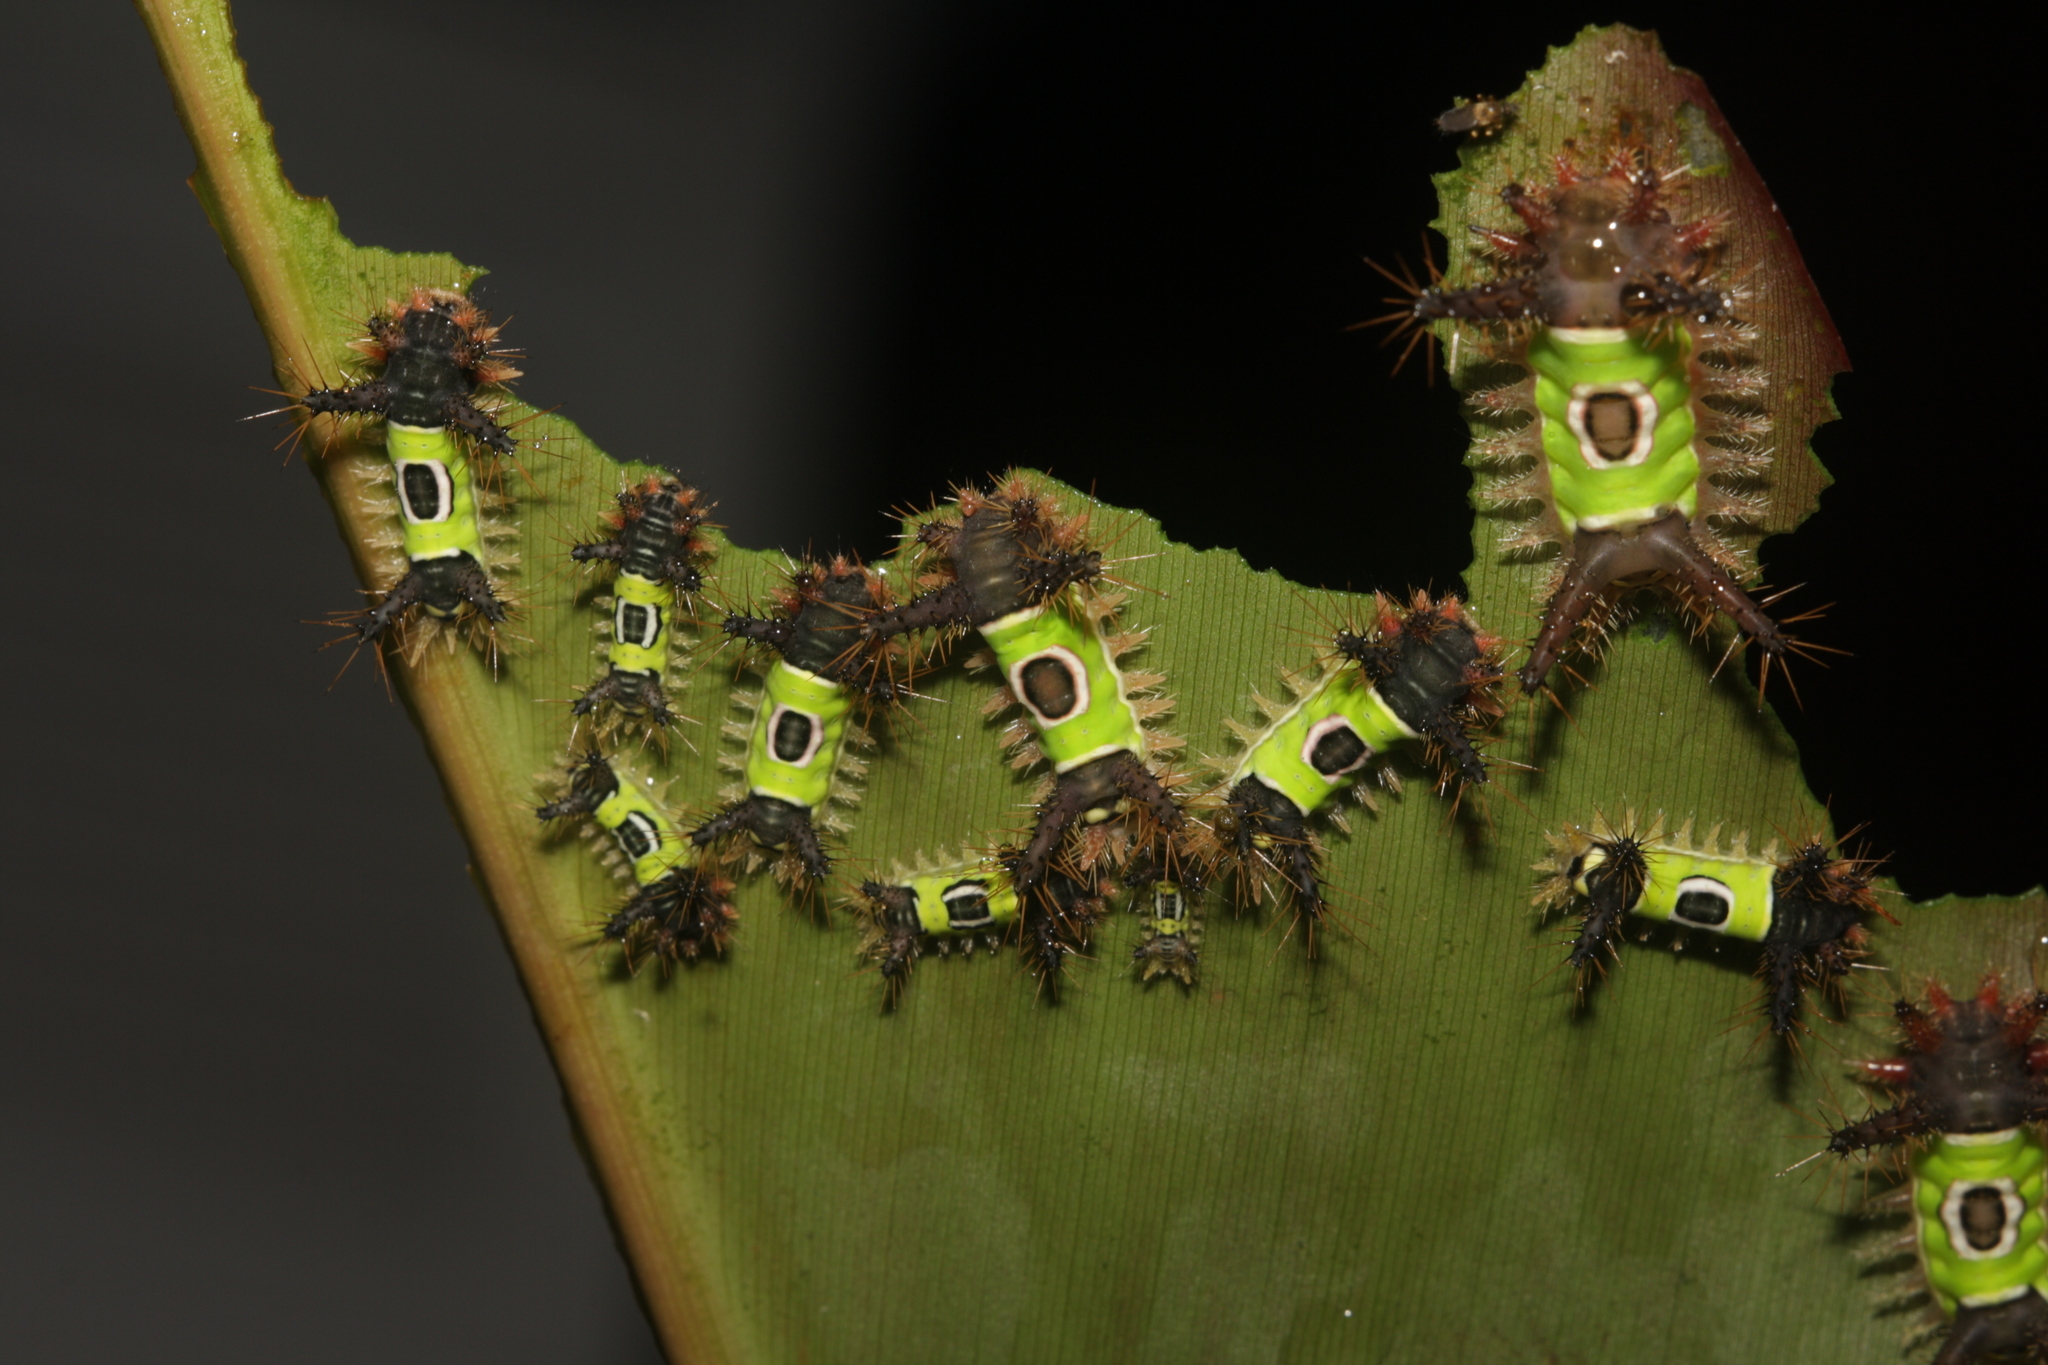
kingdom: Animalia
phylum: Arthropoda
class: Insecta
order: Lepidoptera
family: Limacodidae
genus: Acharia
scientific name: Acharia hyperoche
